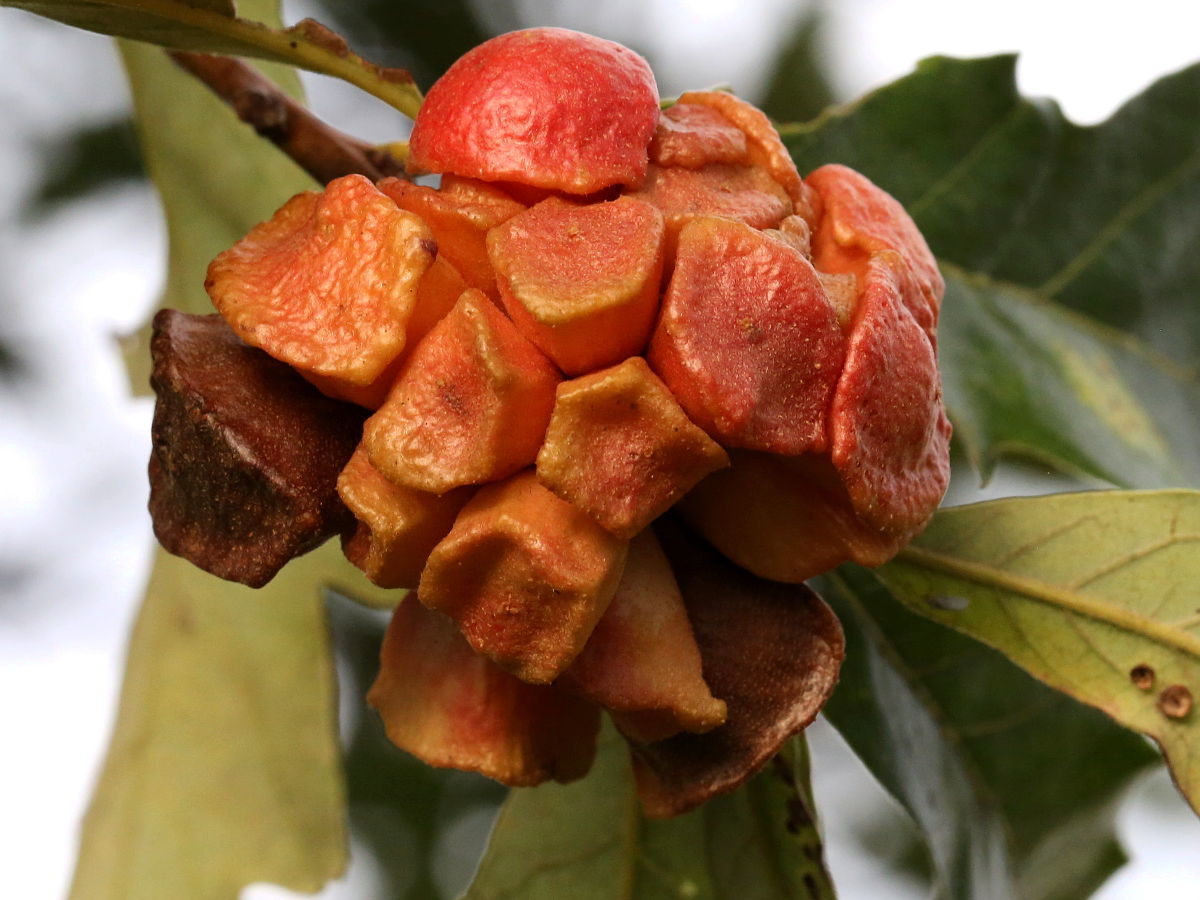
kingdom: Animalia
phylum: Arthropoda
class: Insecta
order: Hymenoptera
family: Cynipidae
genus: Andricus
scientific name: Andricus
